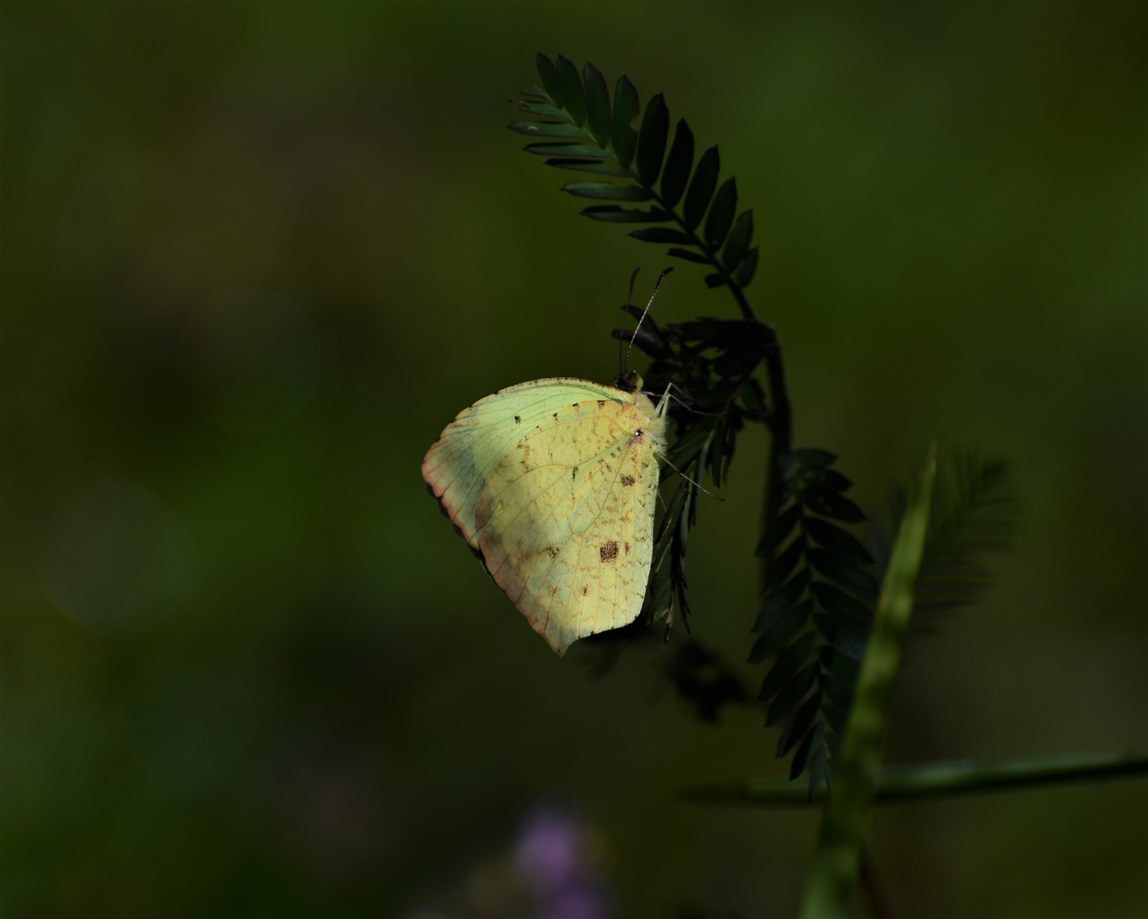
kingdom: Animalia
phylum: Arthropoda
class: Insecta
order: Lepidoptera
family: Pieridae
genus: Abaeis
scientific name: Abaeis salome
